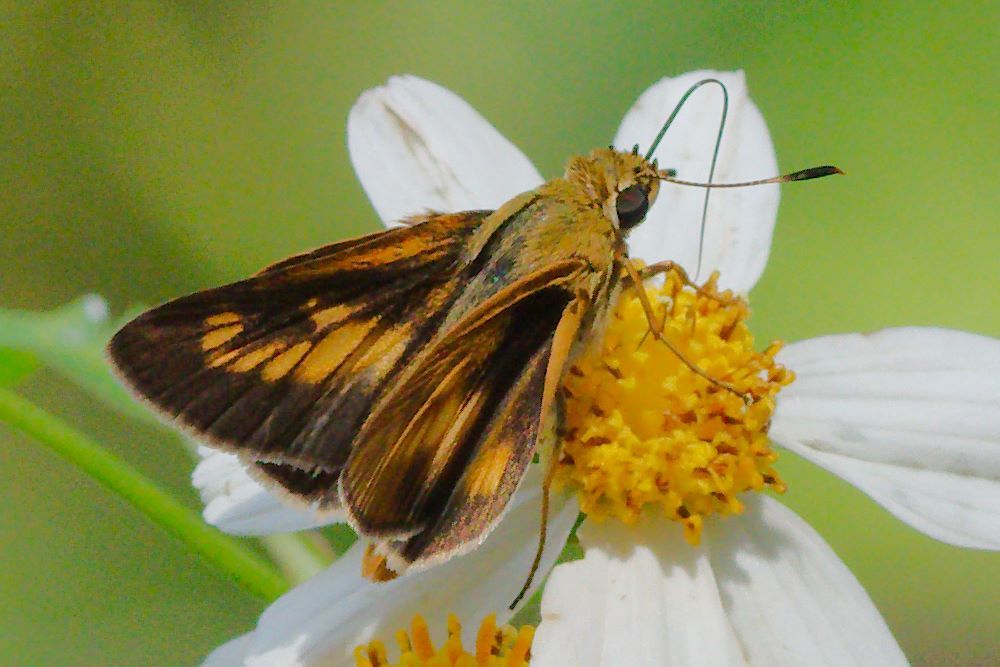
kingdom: Animalia
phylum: Arthropoda
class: Insecta
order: Lepidoptera
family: Hesperiidae
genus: Problema
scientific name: Problema byssus
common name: Byssus skipper
